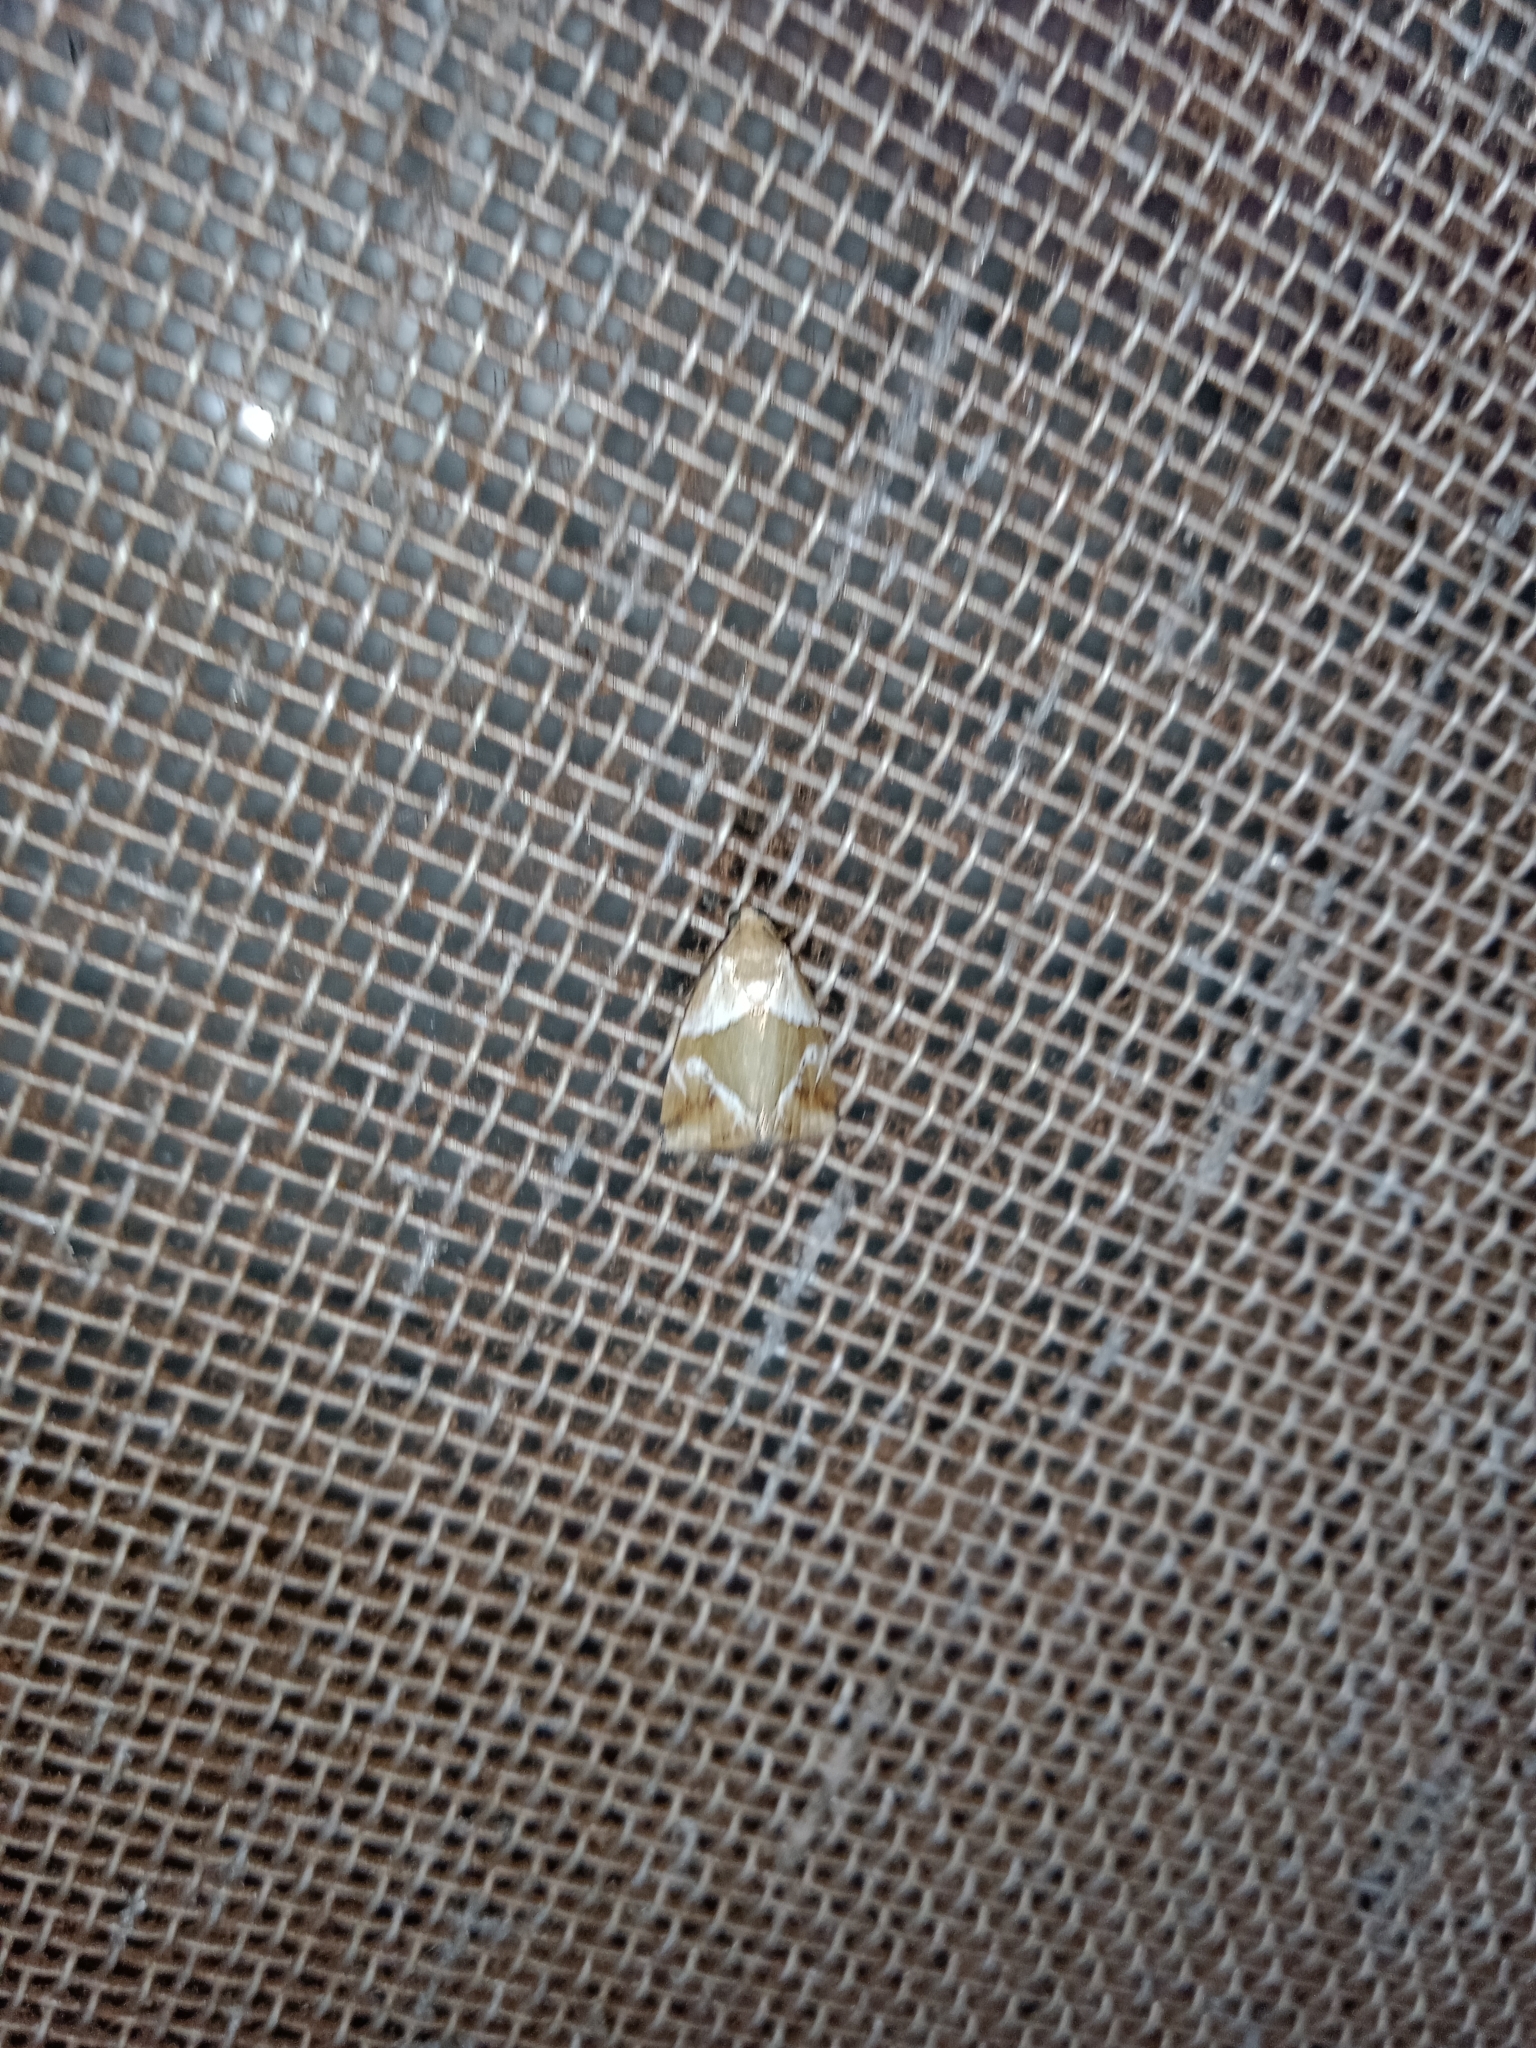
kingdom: Animalia
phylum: Arthropoda
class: Insecta
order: Lepidoptera
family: Noctuidae
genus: Maliattha
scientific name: Maliattha lativitta
